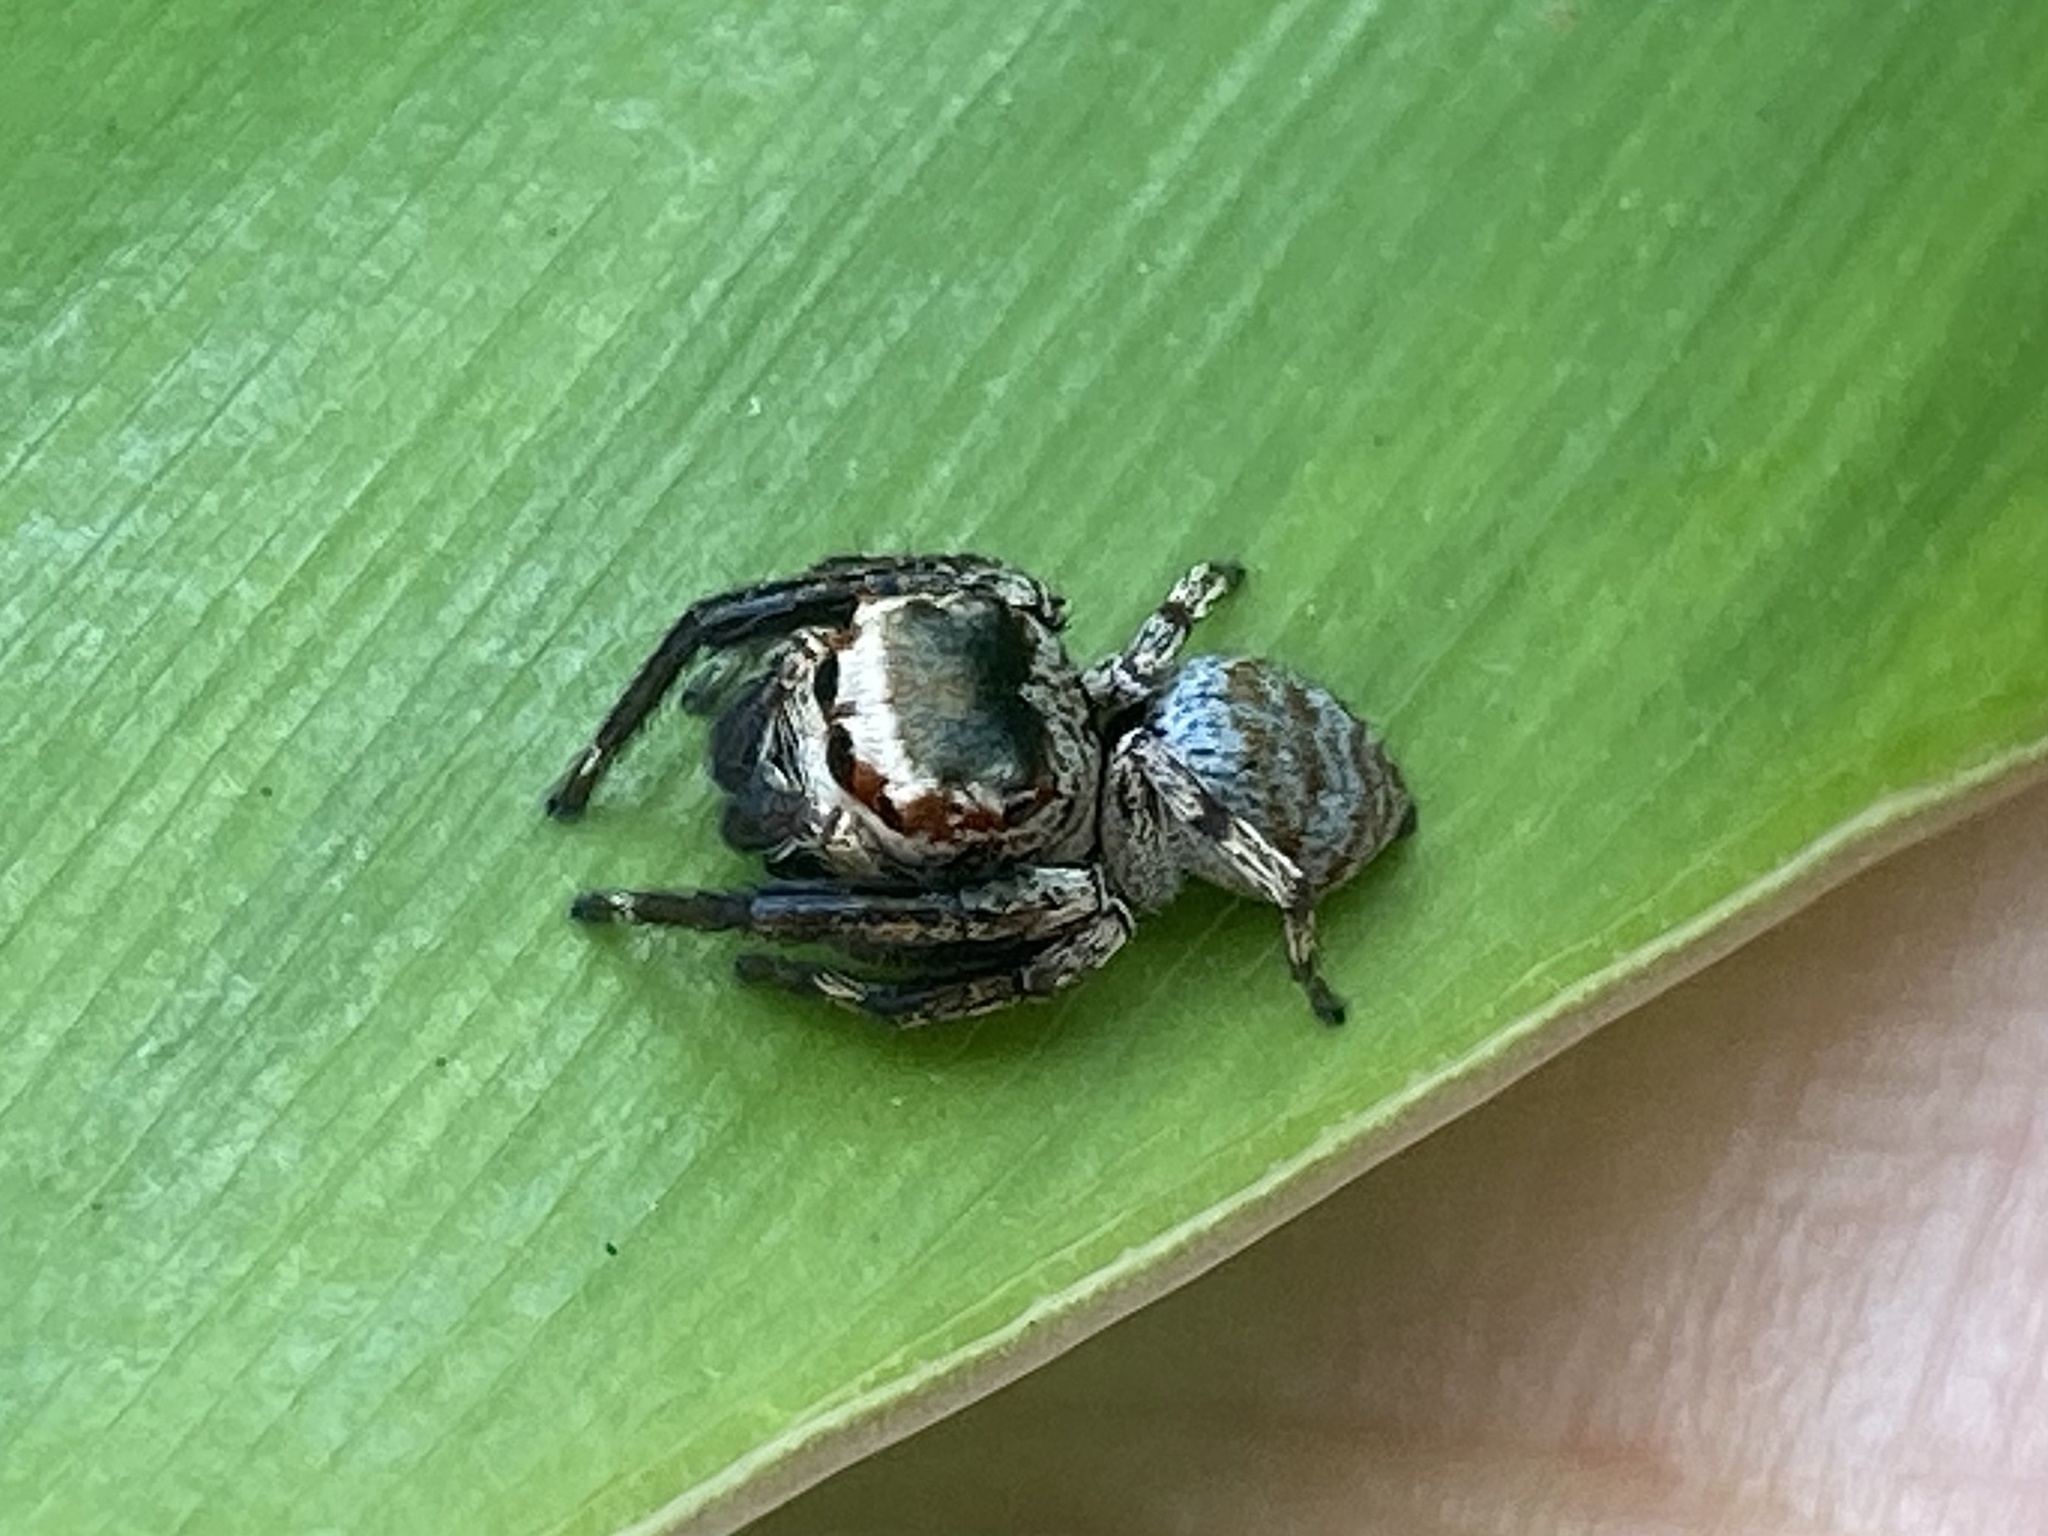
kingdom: Animalia
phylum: Arthropoda
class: Arachnida
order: Araneae
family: Salticidae
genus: Euryattus
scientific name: Euryattus bleekeri
